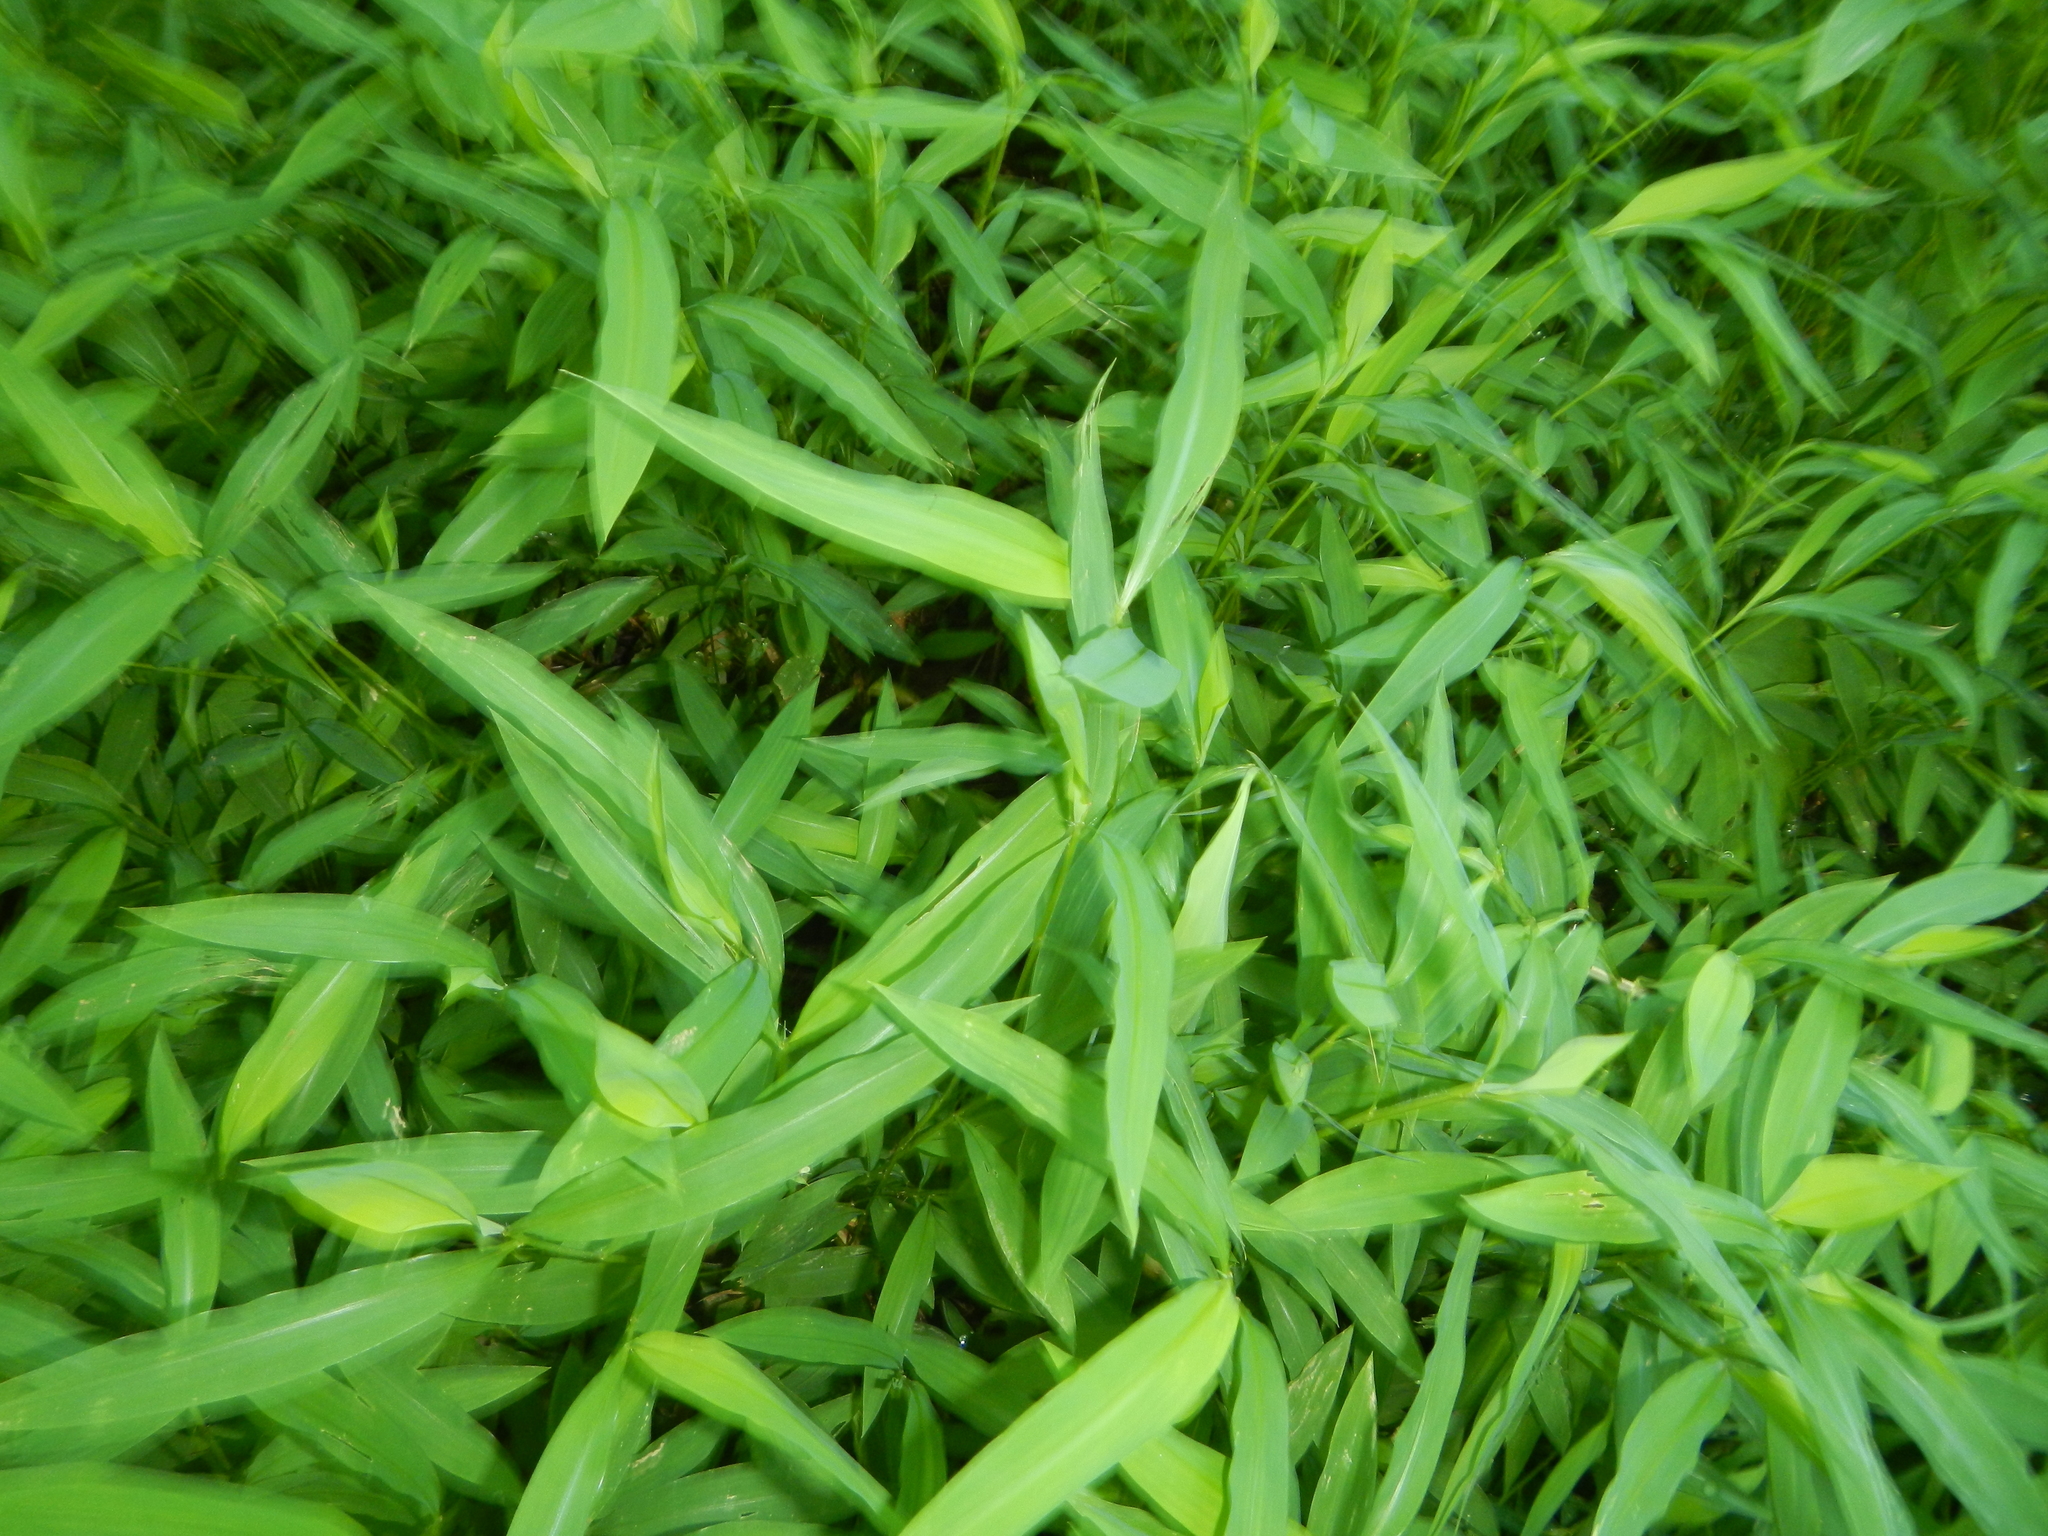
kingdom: Plantae
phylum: Tracheophyta
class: Liliopsida
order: Poales
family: Poaceae
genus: Microstegium
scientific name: Microstegium vimineum
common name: Japanese stiltgrass
